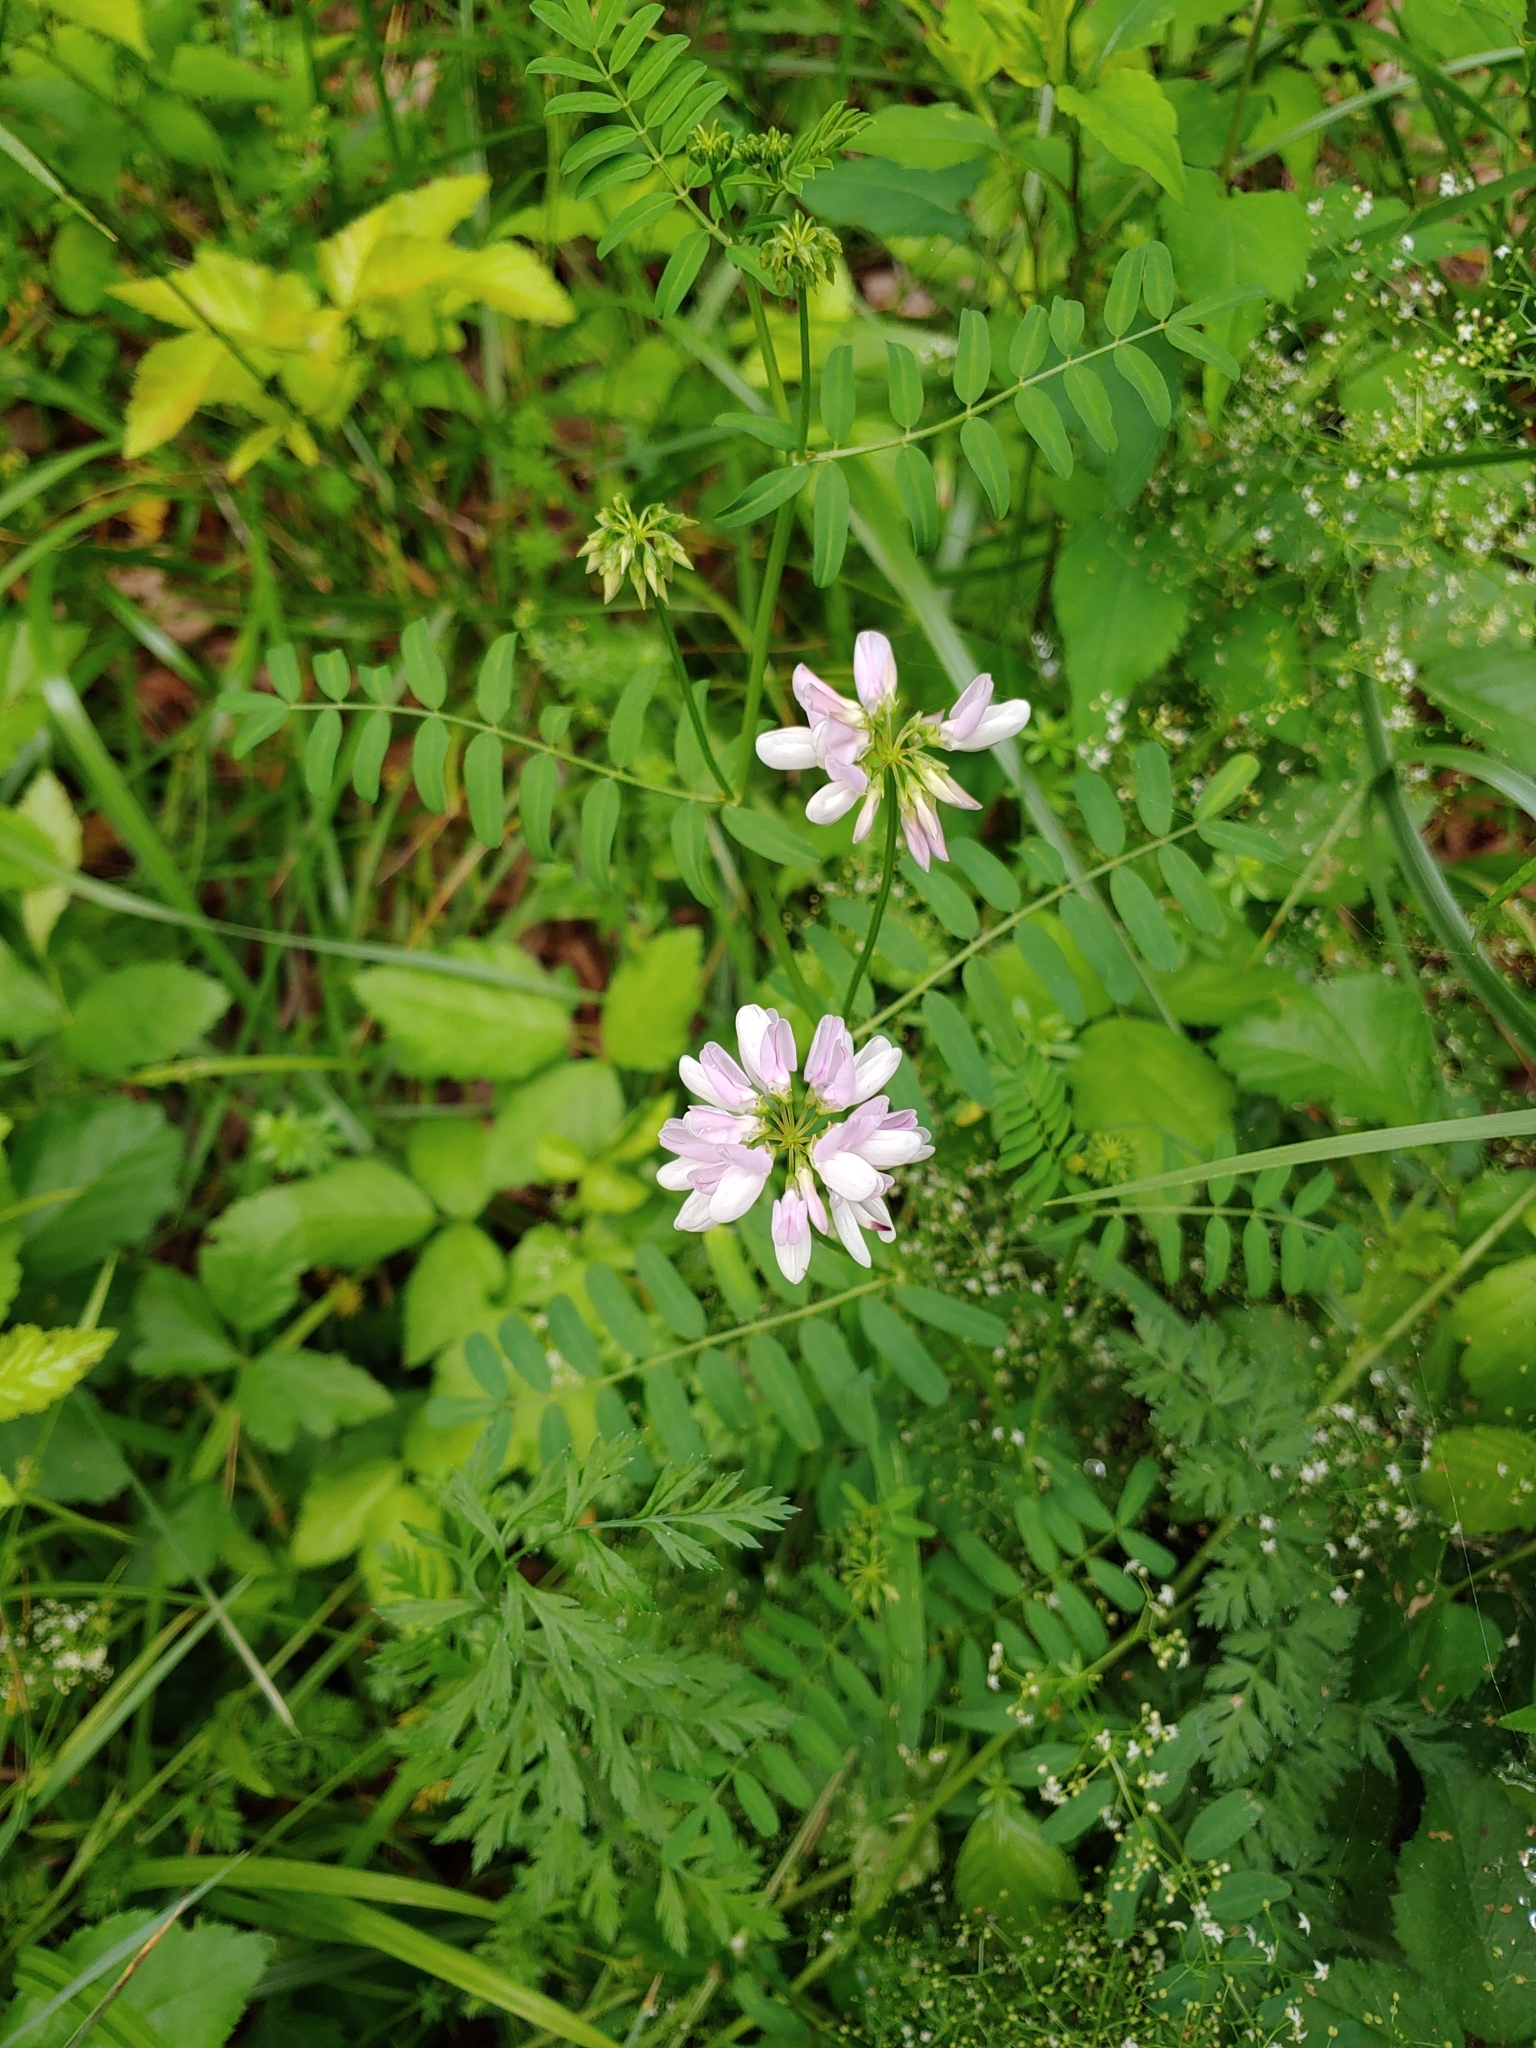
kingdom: Plantae
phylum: Tracheophyta
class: Magnoliopsida
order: Fabales
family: Fabaceae
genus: Coronilla
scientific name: Coronilla varia
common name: Crownvetch
